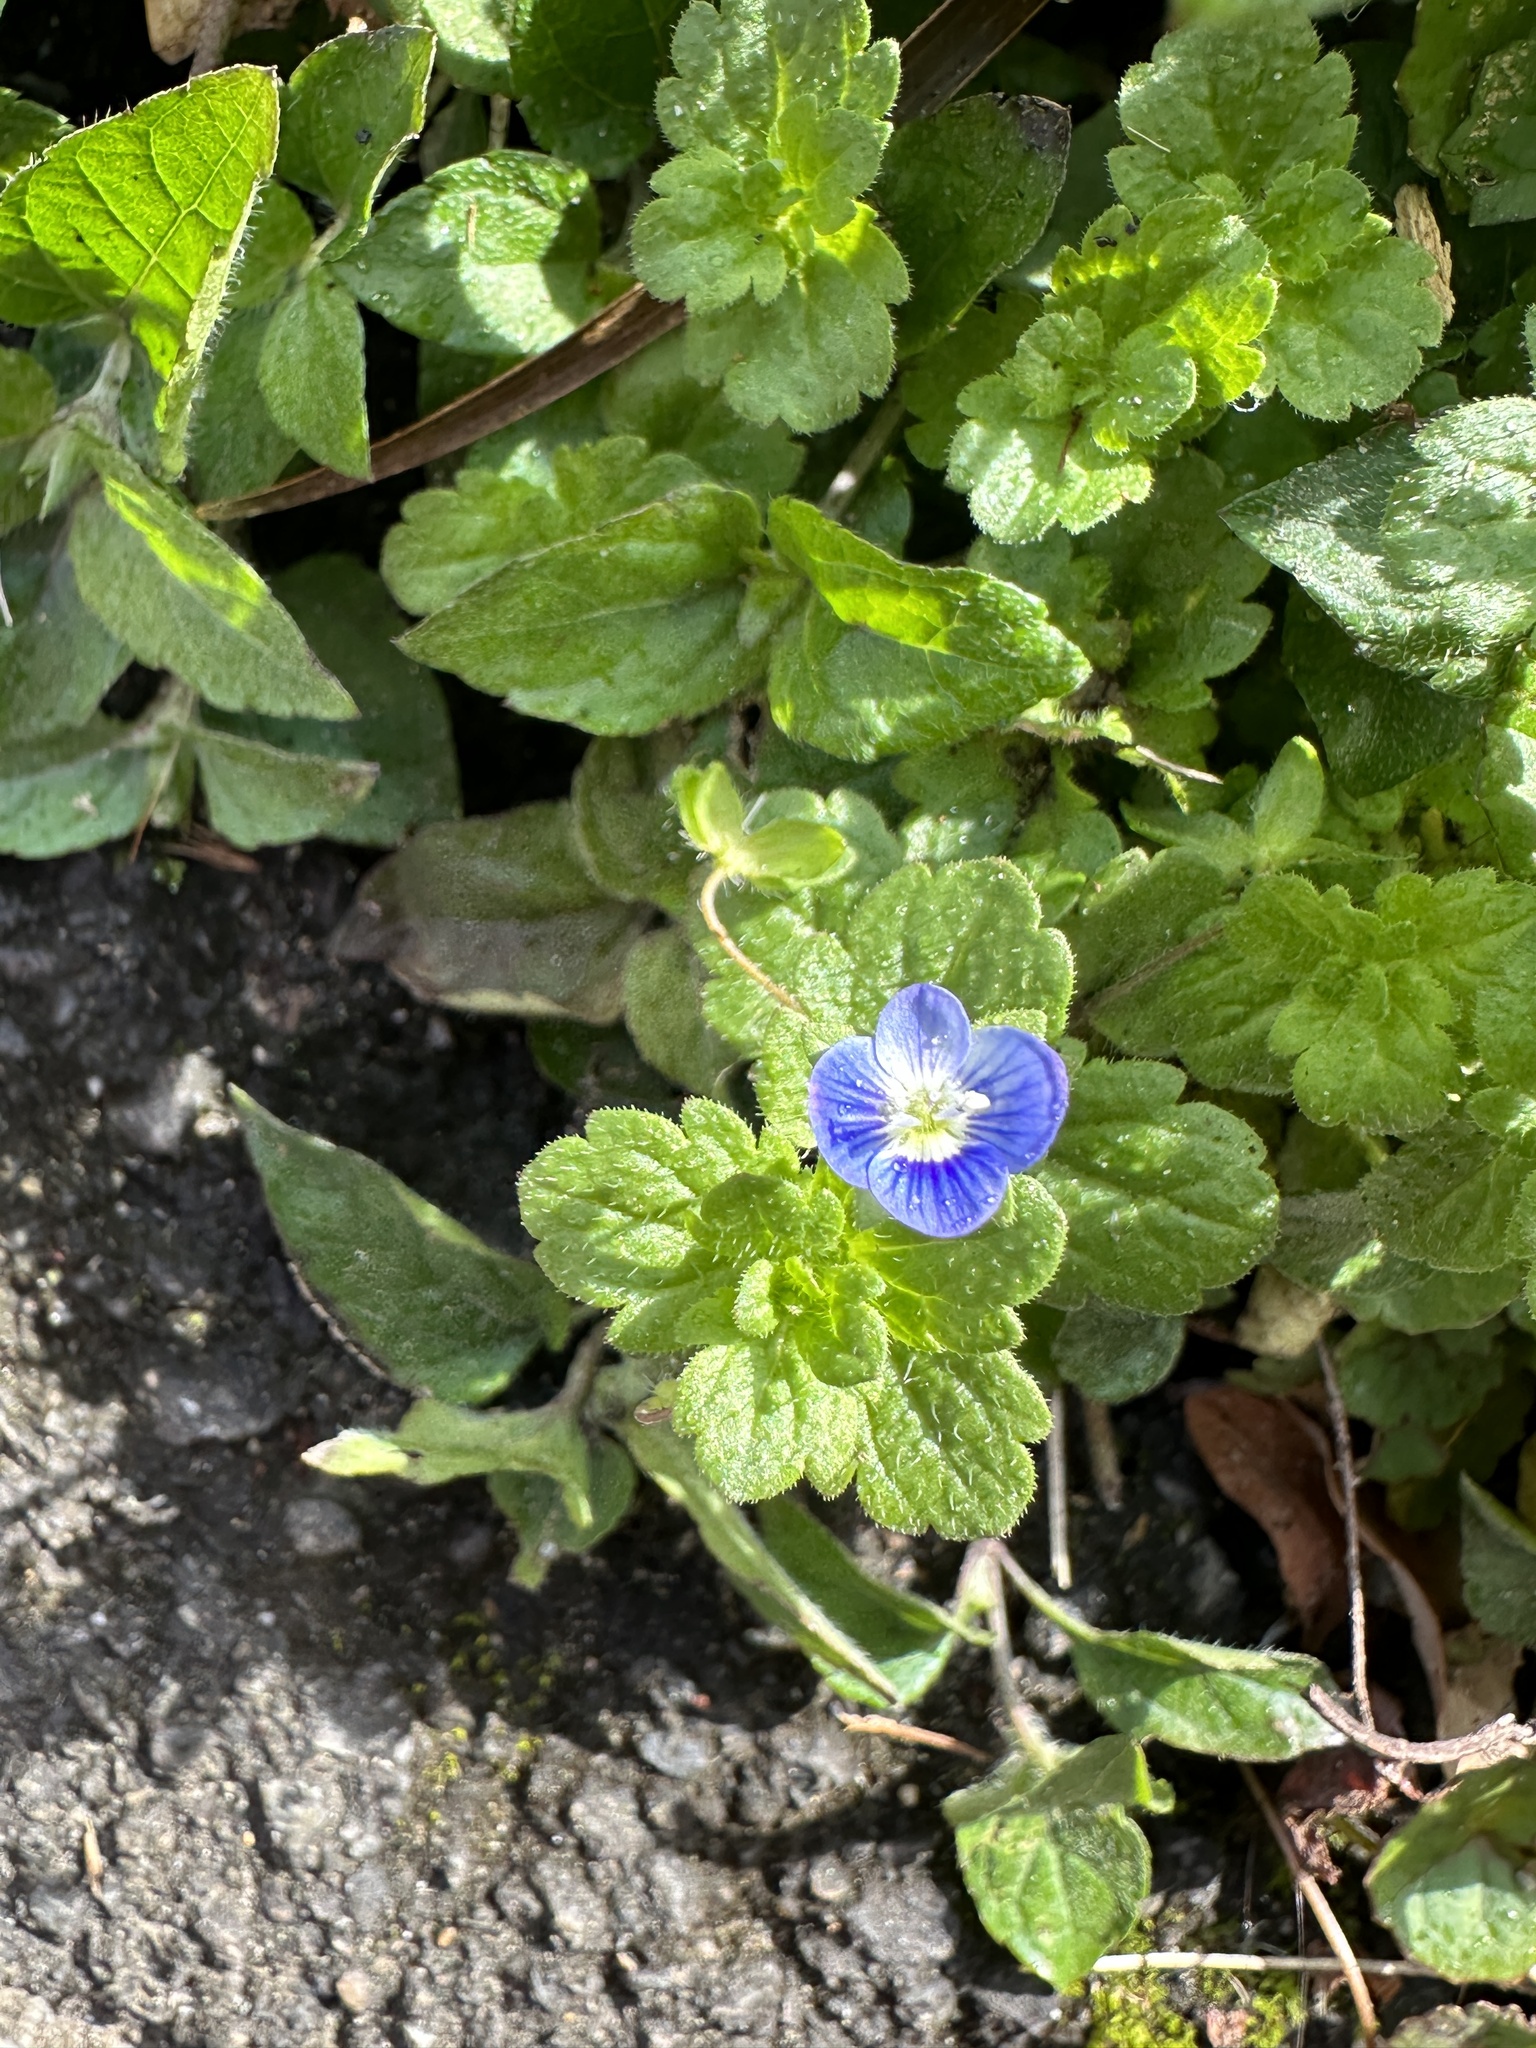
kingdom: Plantae
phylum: Tracheophyta
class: Magnoliopsida
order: Lamiales
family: Plantaginaceae
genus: Veronica
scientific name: Veronica persica
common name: Common field-speedwell
